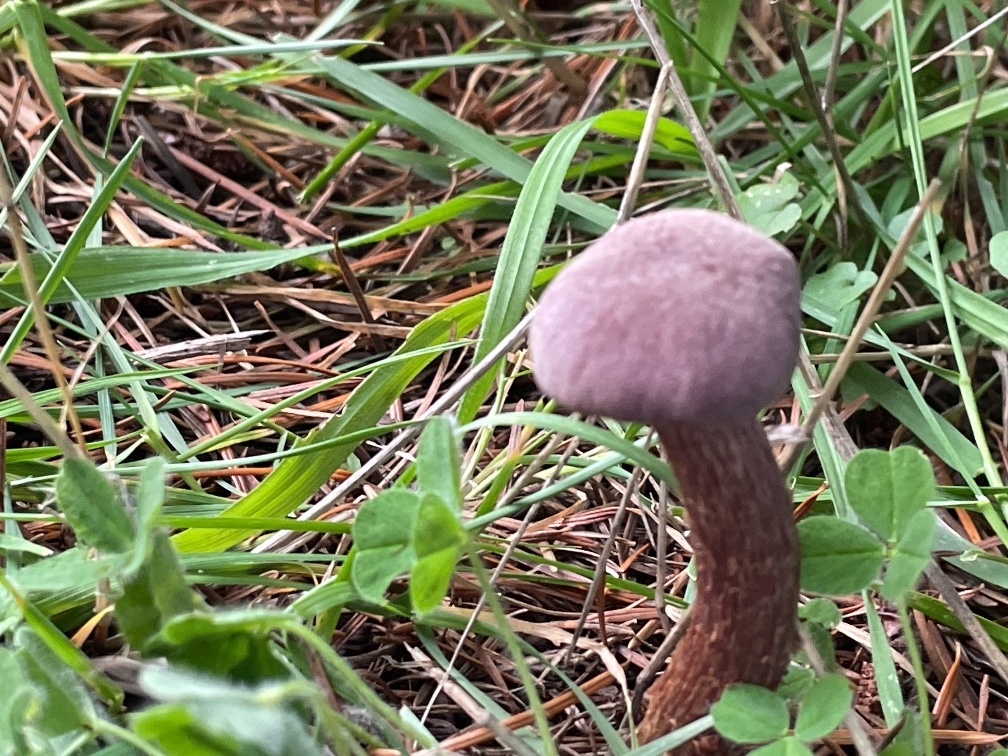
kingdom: Fungi
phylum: Basidiomycota
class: Agaricomycetes
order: Agaricales
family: Hydnangiaceae
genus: Laccaria
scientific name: Laccaria amethysteo-occidentalis
